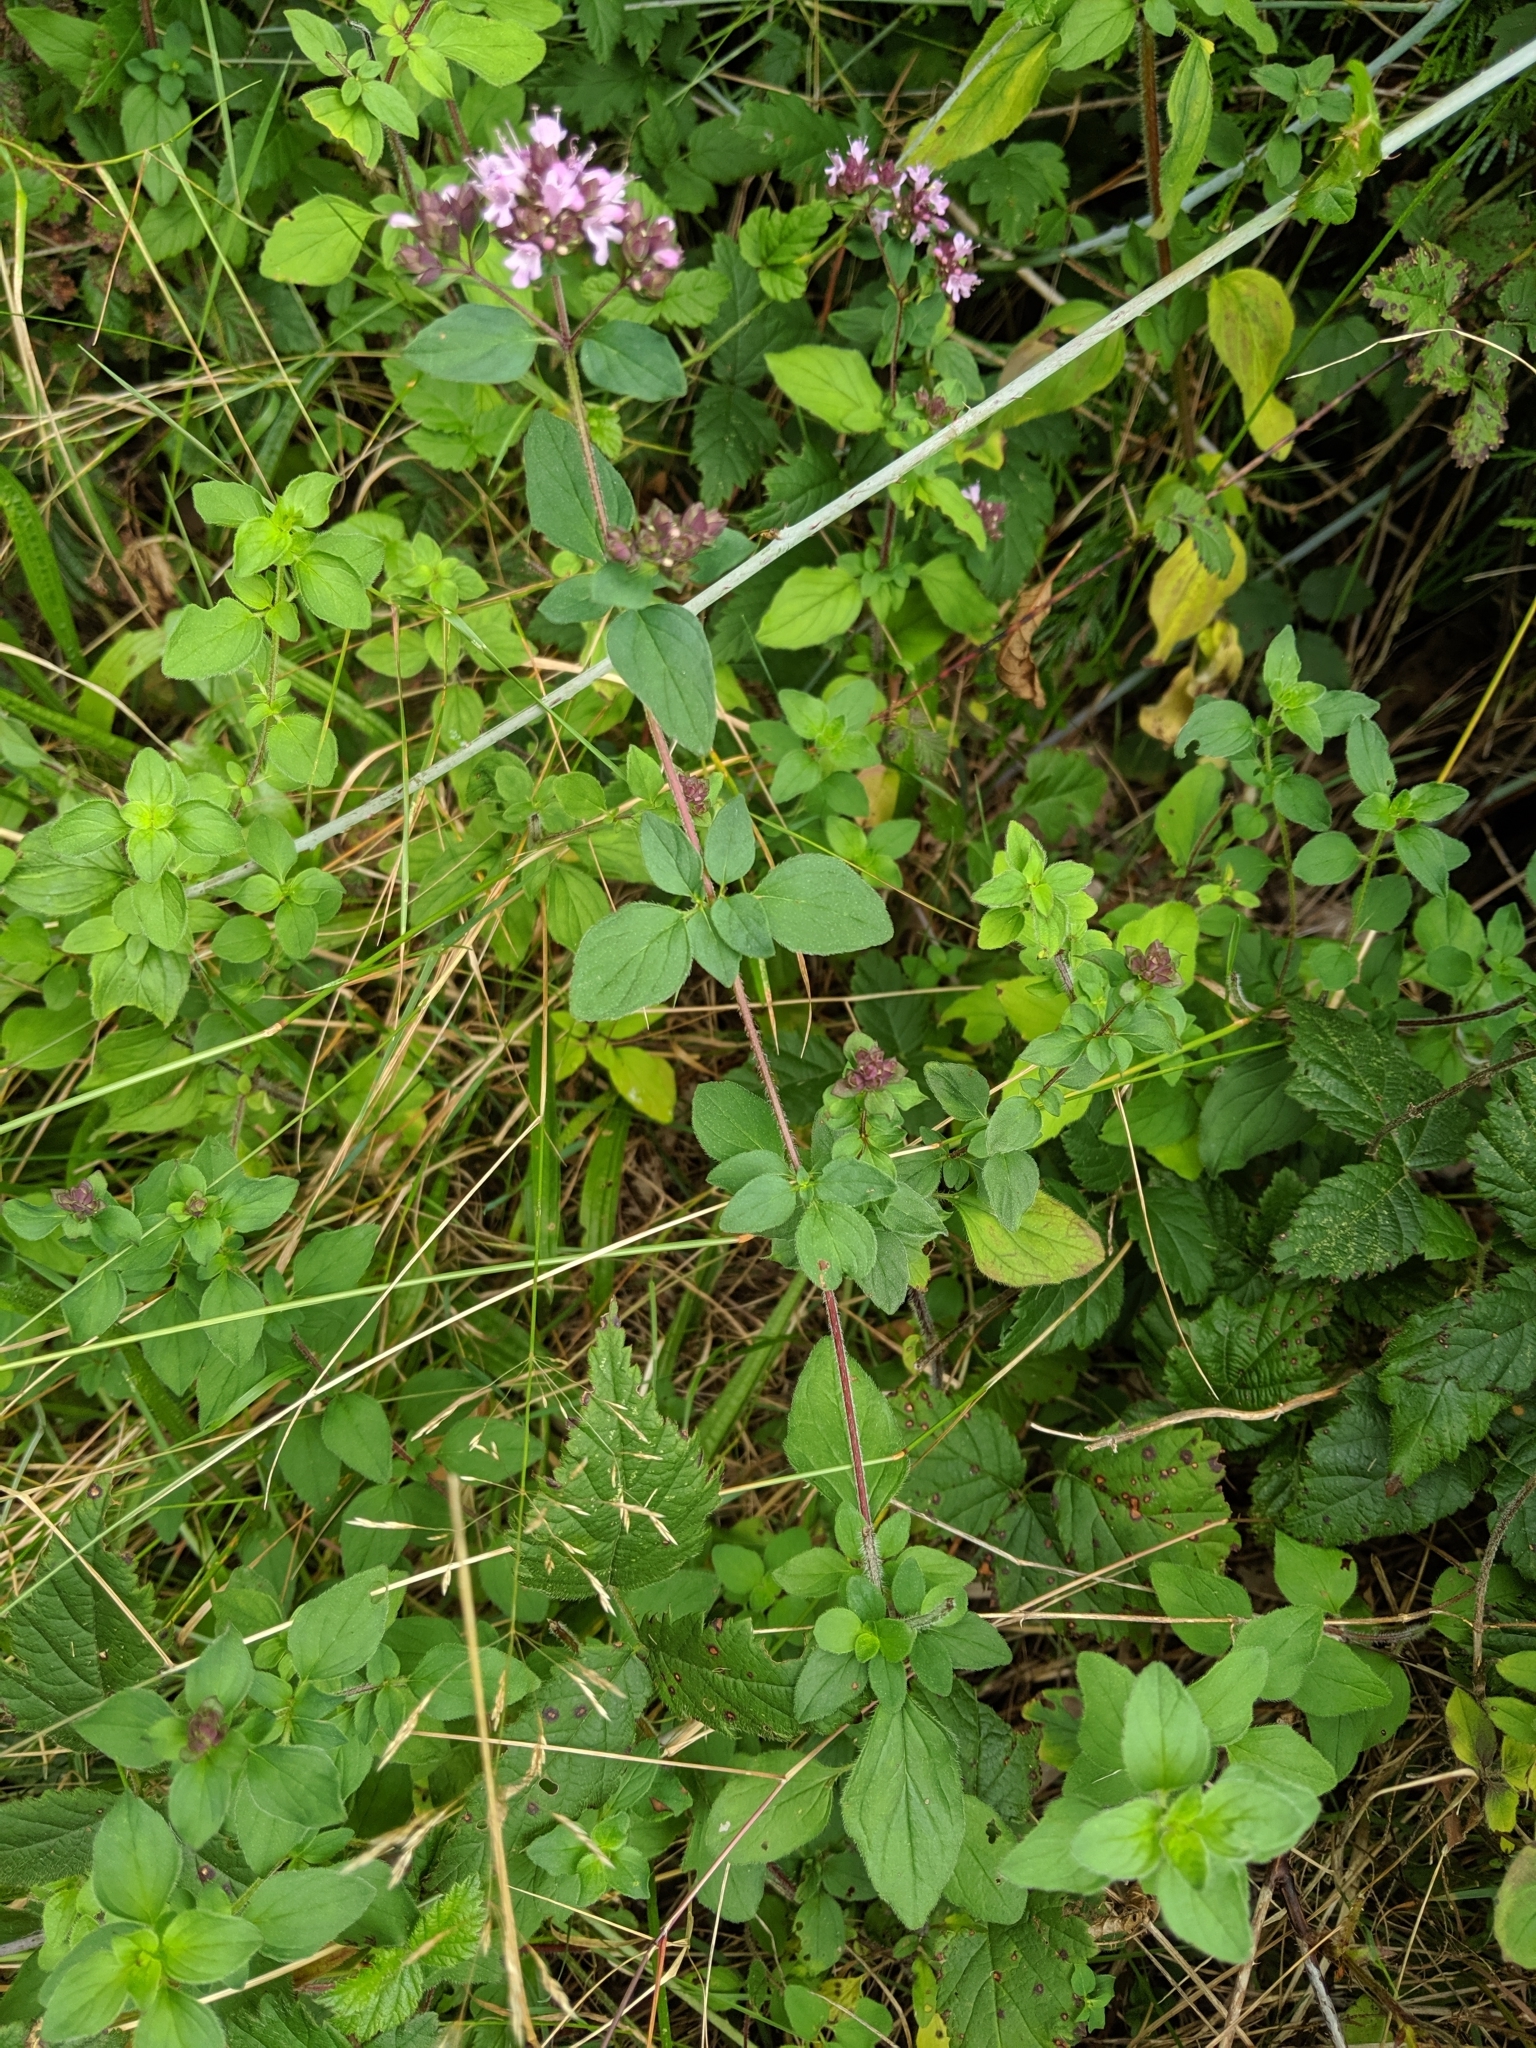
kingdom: Plantae
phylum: Tracheophyta
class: Magnoliopsida
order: Lamiales
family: Lamiaceae
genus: Origanum
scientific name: Origanum vulgare
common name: Wild marjoram
